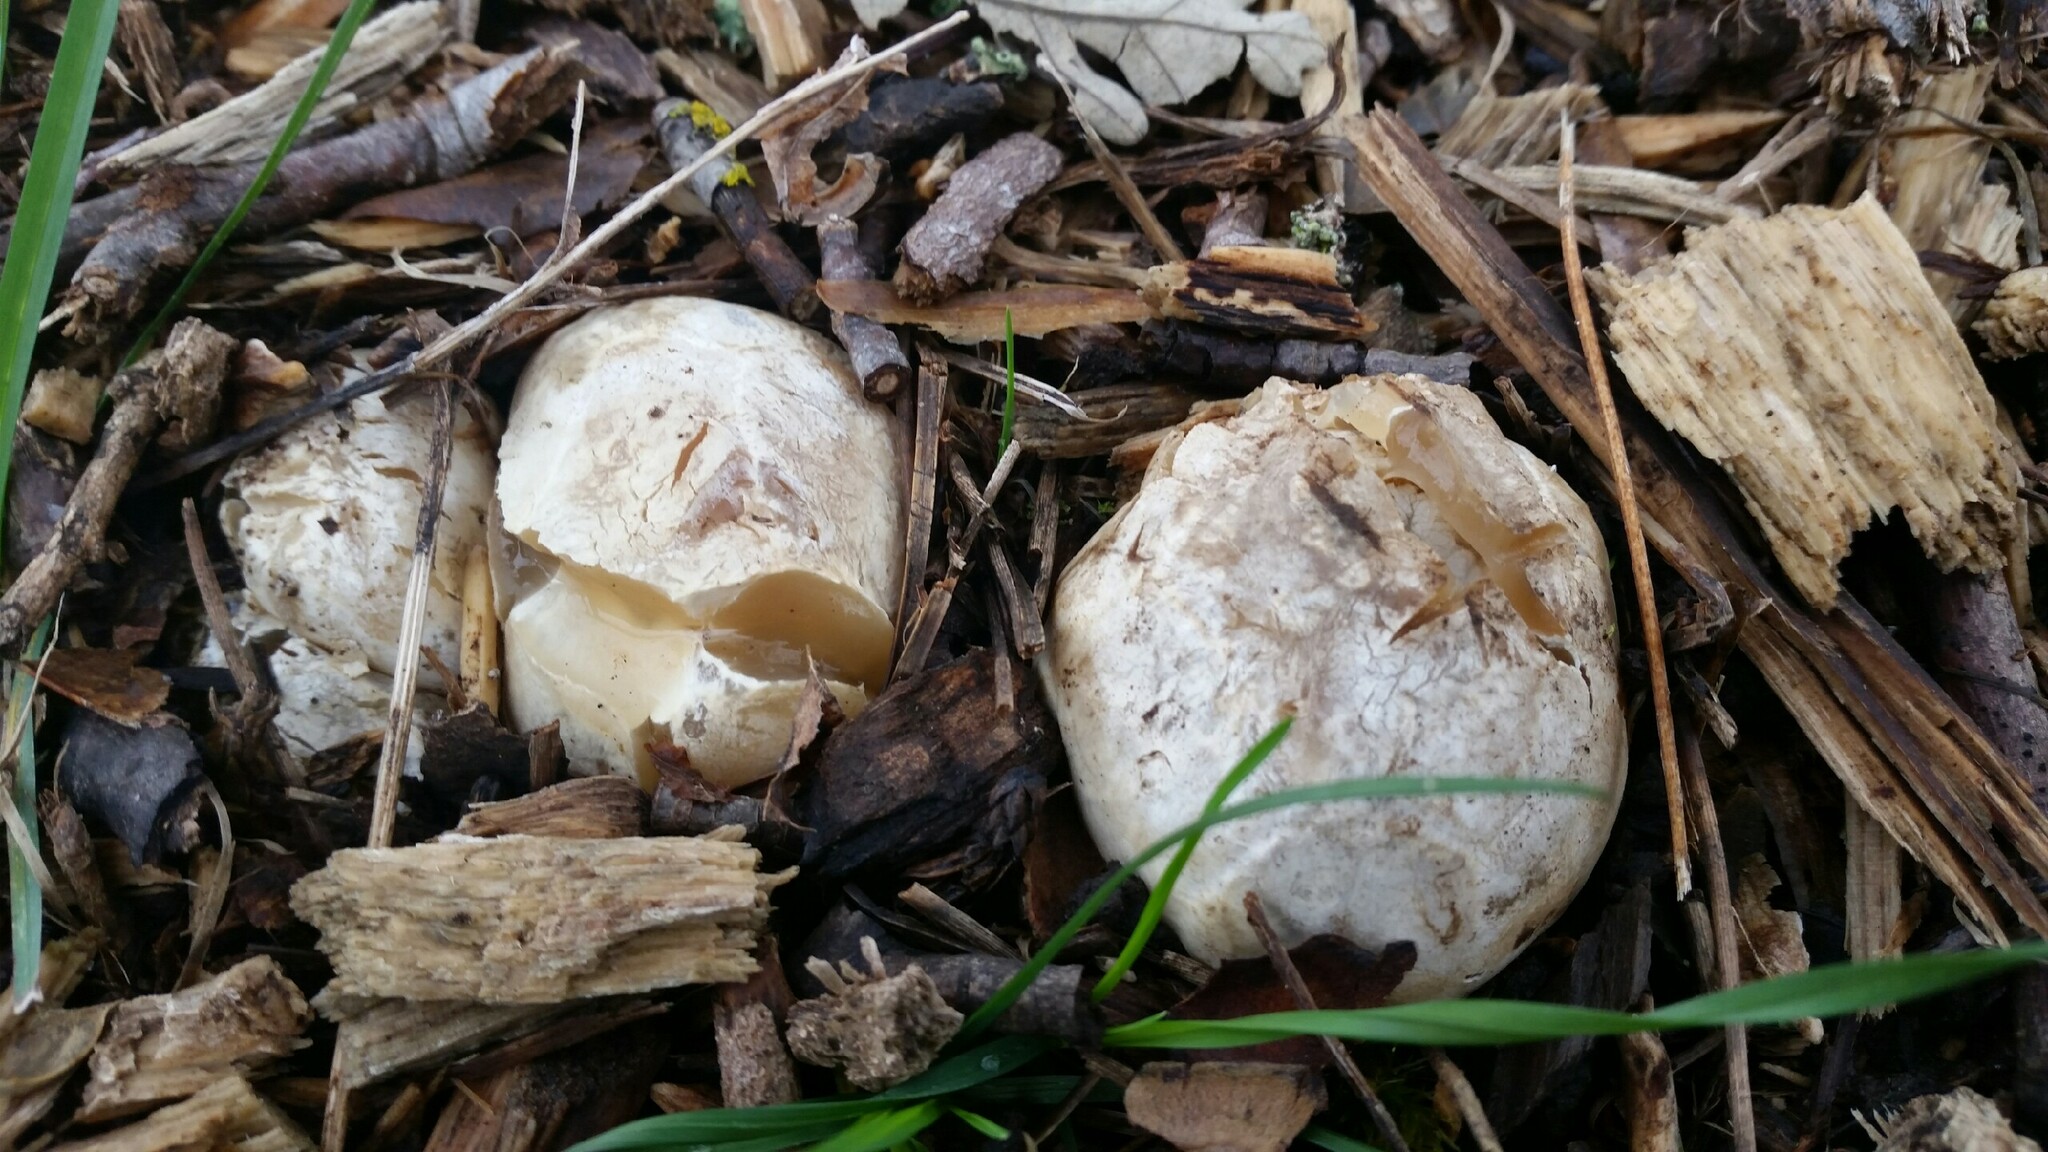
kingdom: Fungi
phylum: Basidiomycota
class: Agaricomycetes
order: Phallales
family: Phallaceae
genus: Clathrus
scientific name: Clathrus ruber
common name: Red cage
